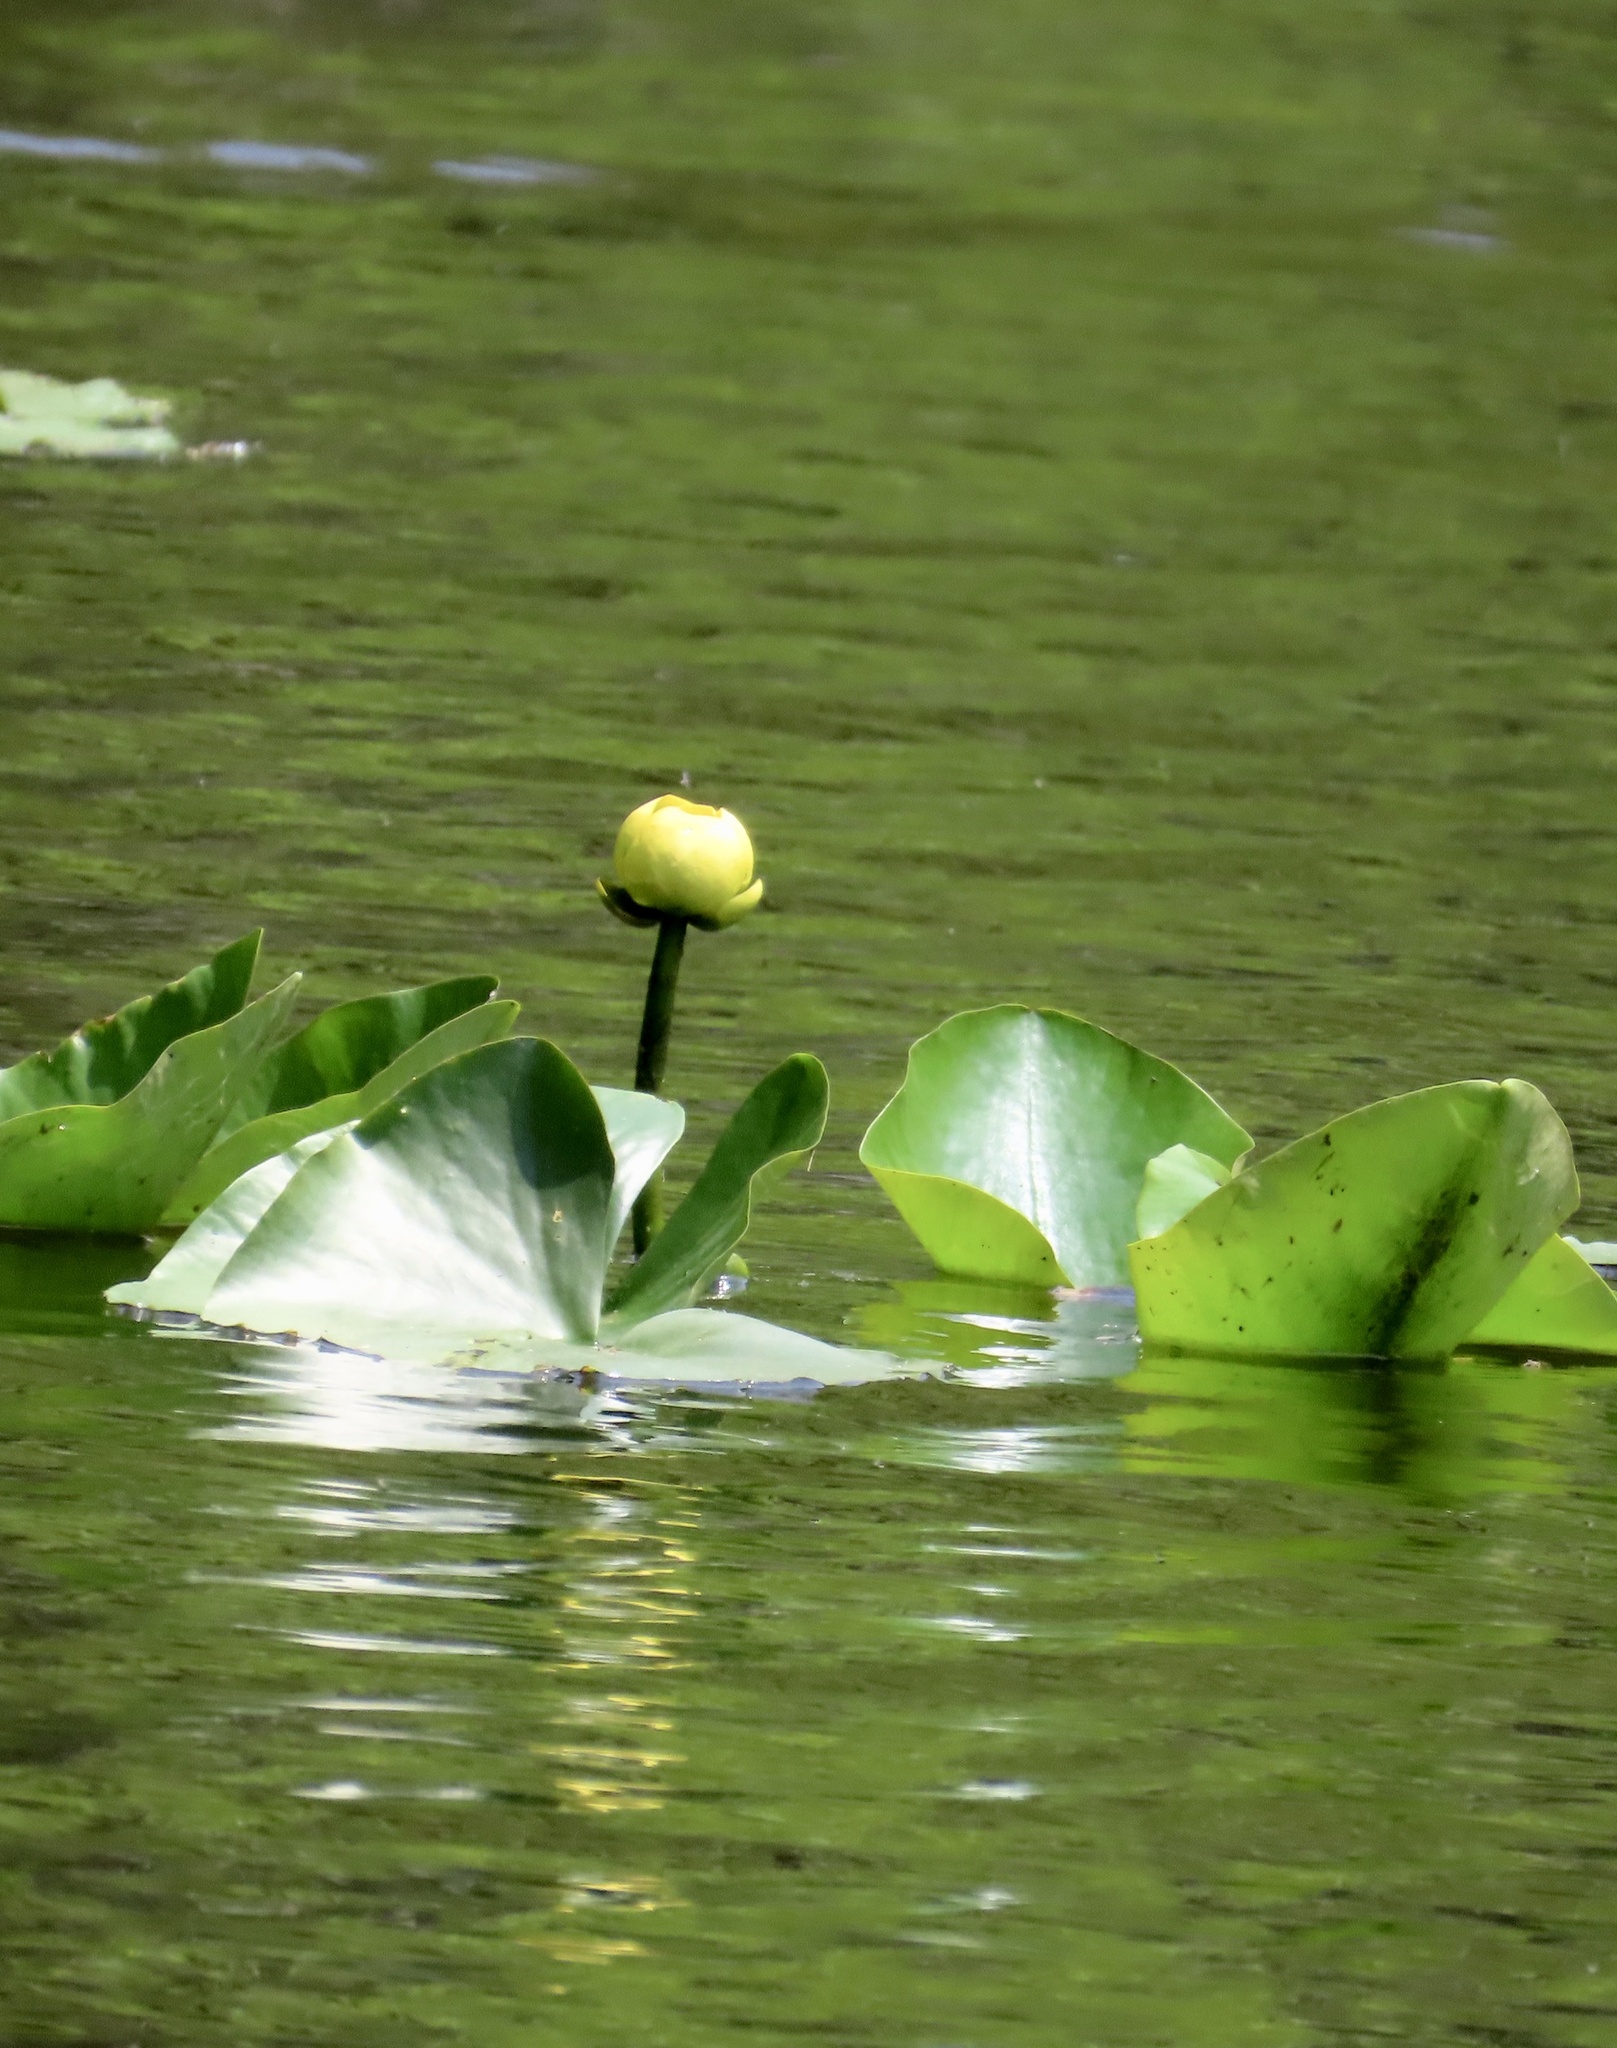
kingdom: Plantae
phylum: Tracheophyta
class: Magnoliopsida
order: Nymphaeales
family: Nymphaeaceae
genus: Nuphar
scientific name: Nuphar advena
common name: Spatter-dock
